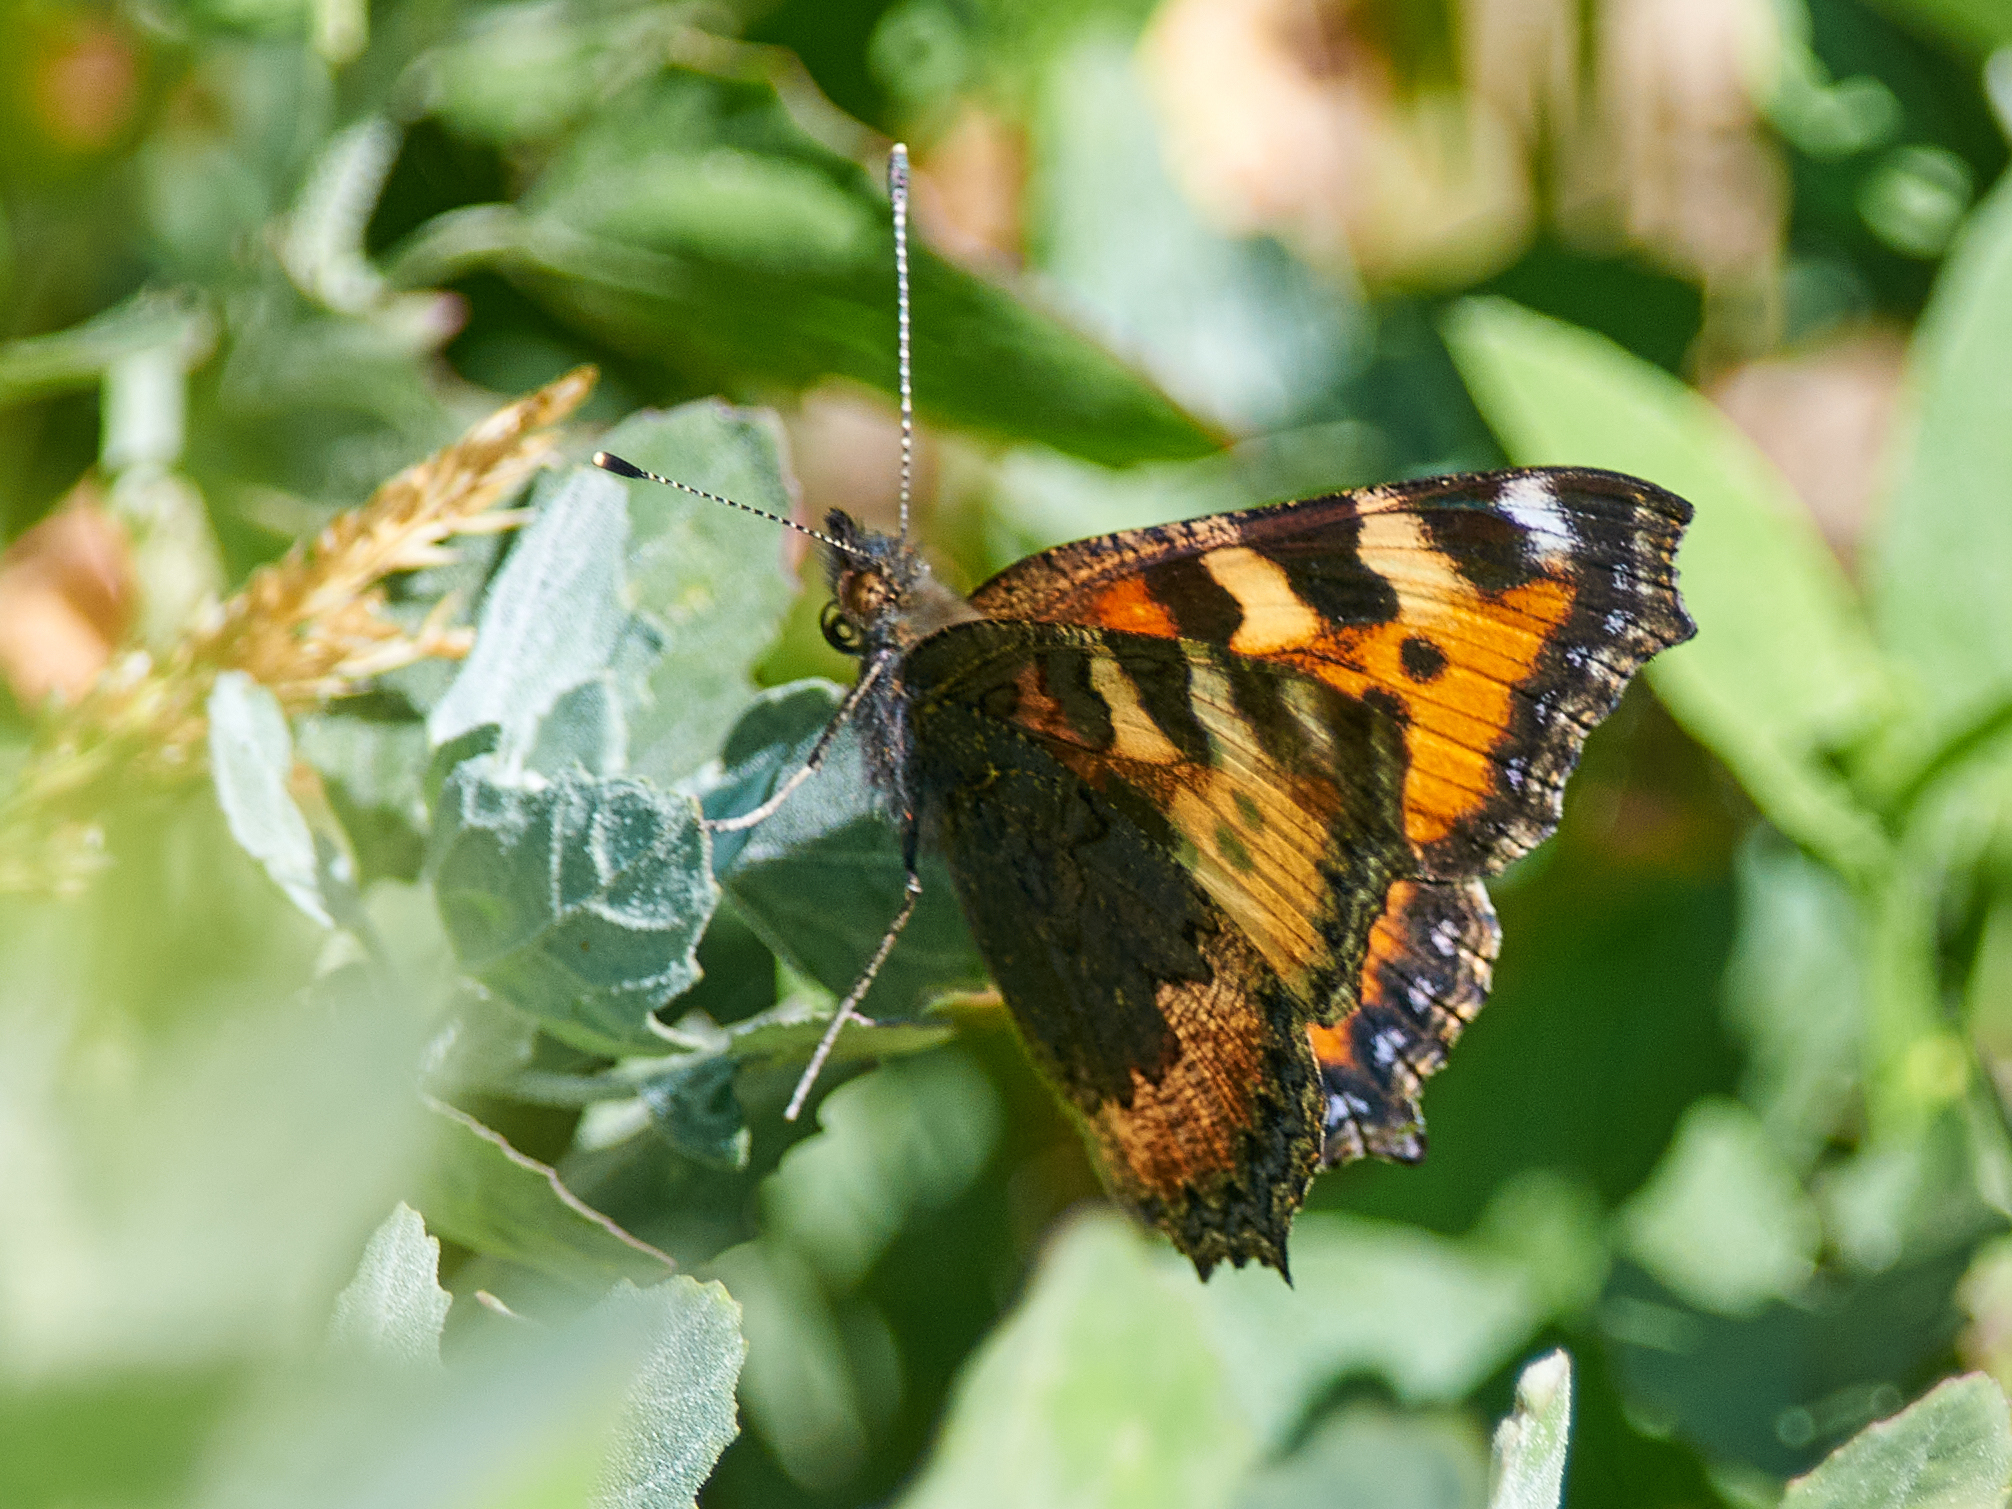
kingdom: Animalia
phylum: Arthropoda
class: Insecta
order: Lepidoptera
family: Nymphalidae
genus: Aglais
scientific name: Aglais urticae
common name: Small tortoiseshell
